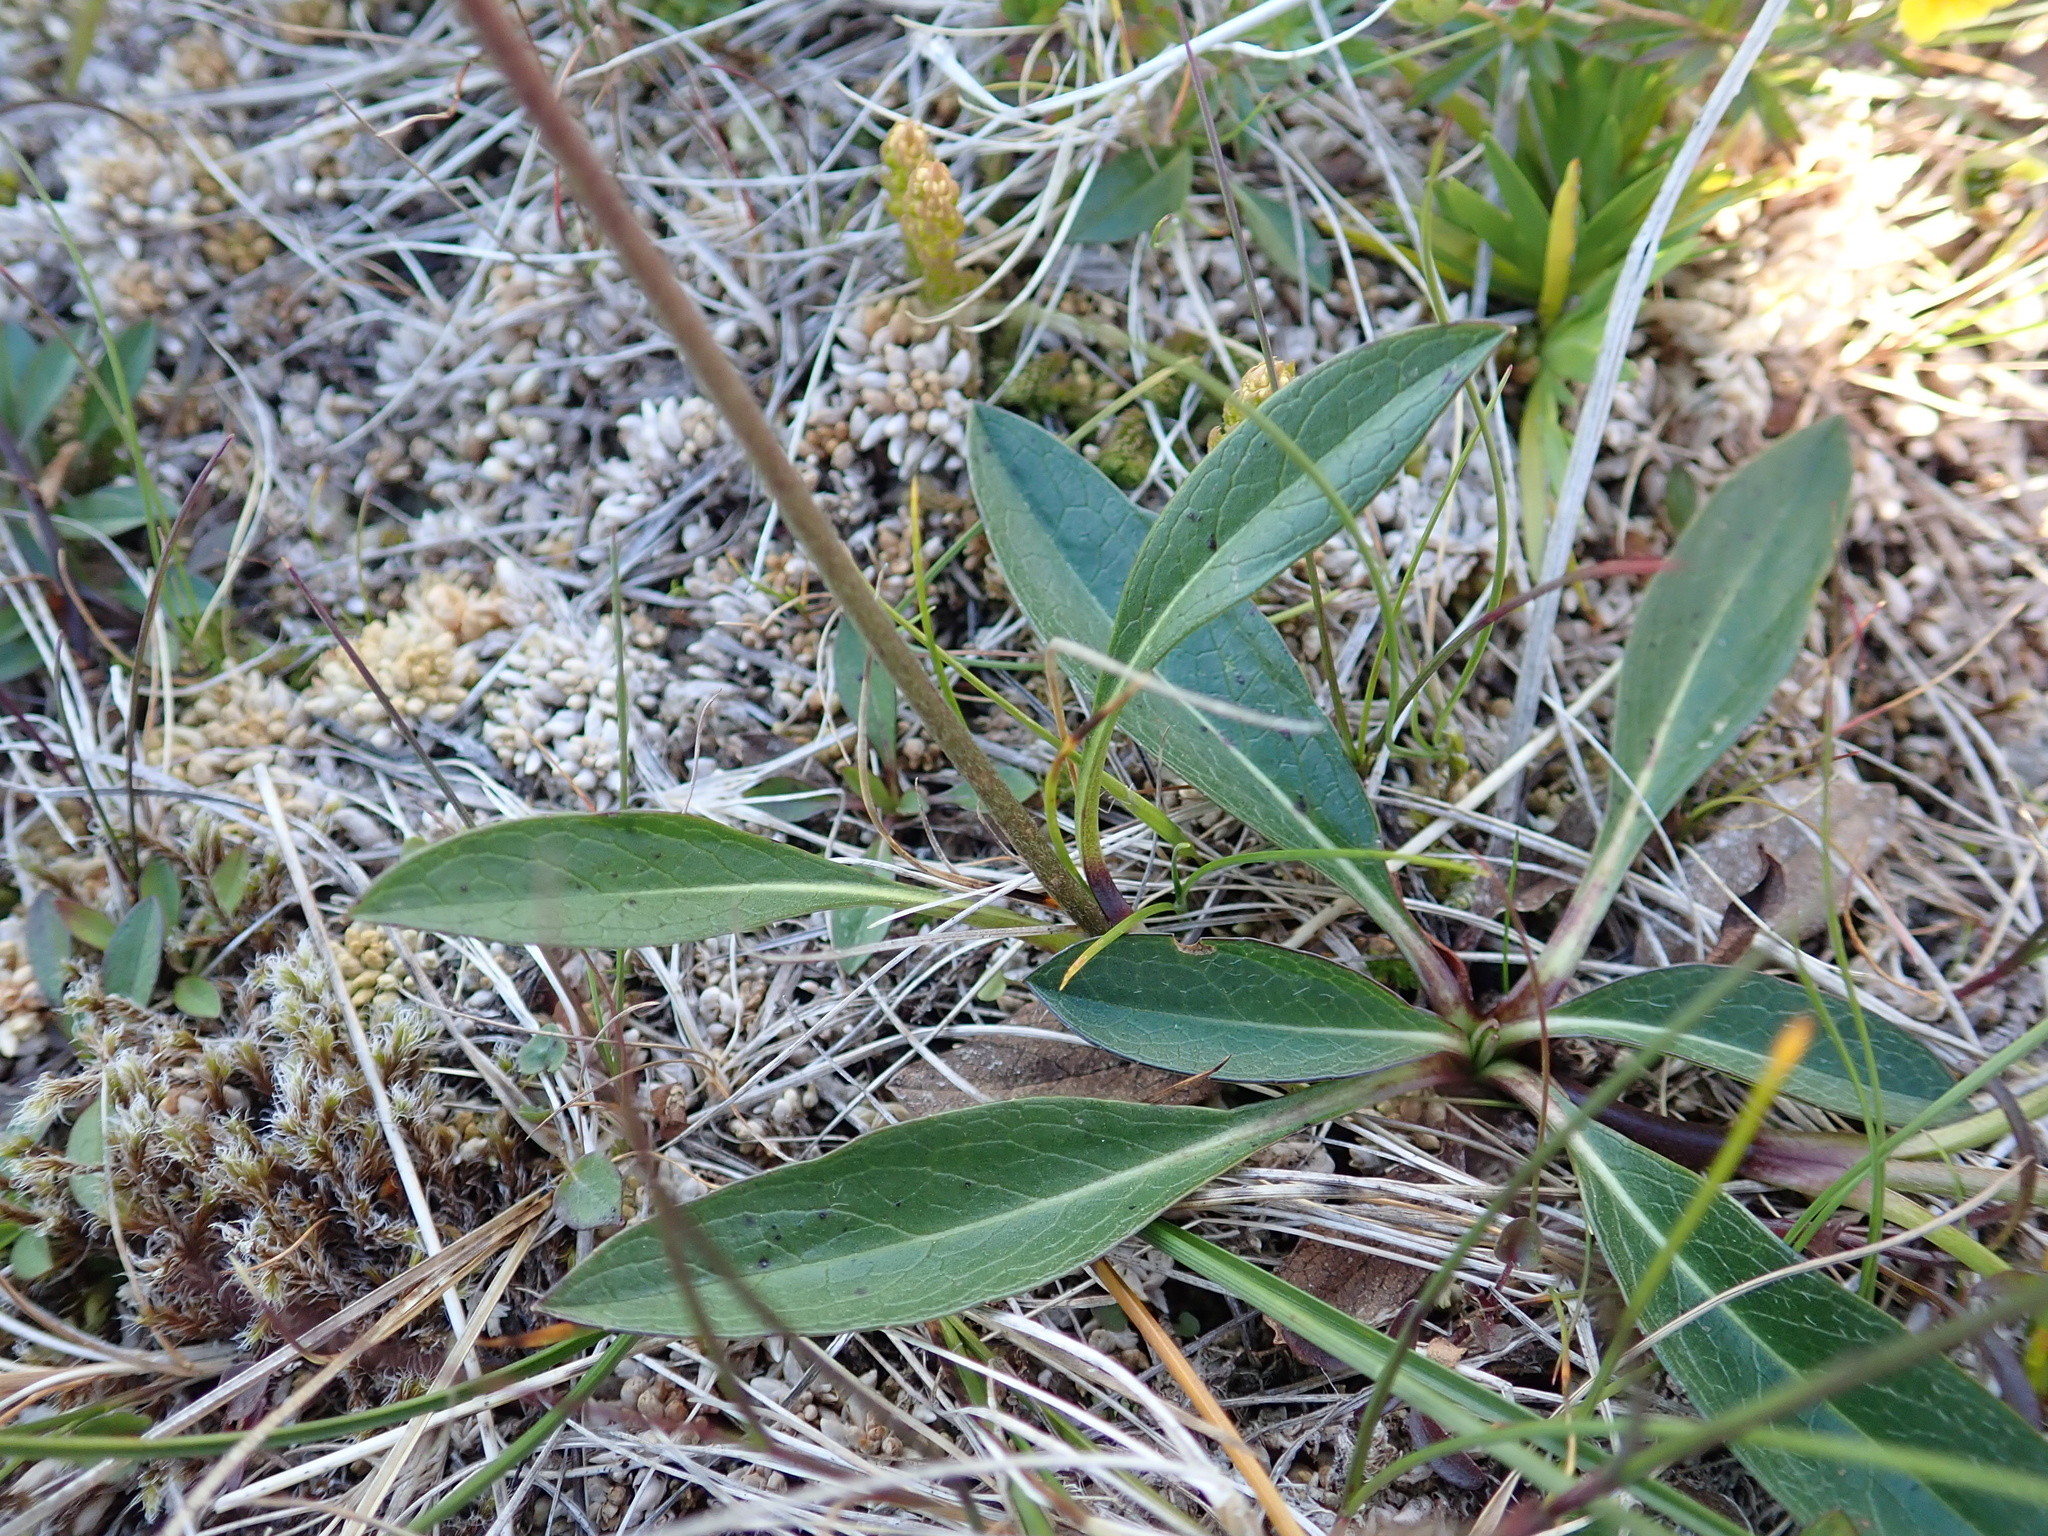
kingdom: Plantae
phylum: Tracheophyta
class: Magnoliopsida
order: Dipsacales
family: Caprifoliaceae
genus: Succisa
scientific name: Succisa pratensis
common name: Devil's-bit
